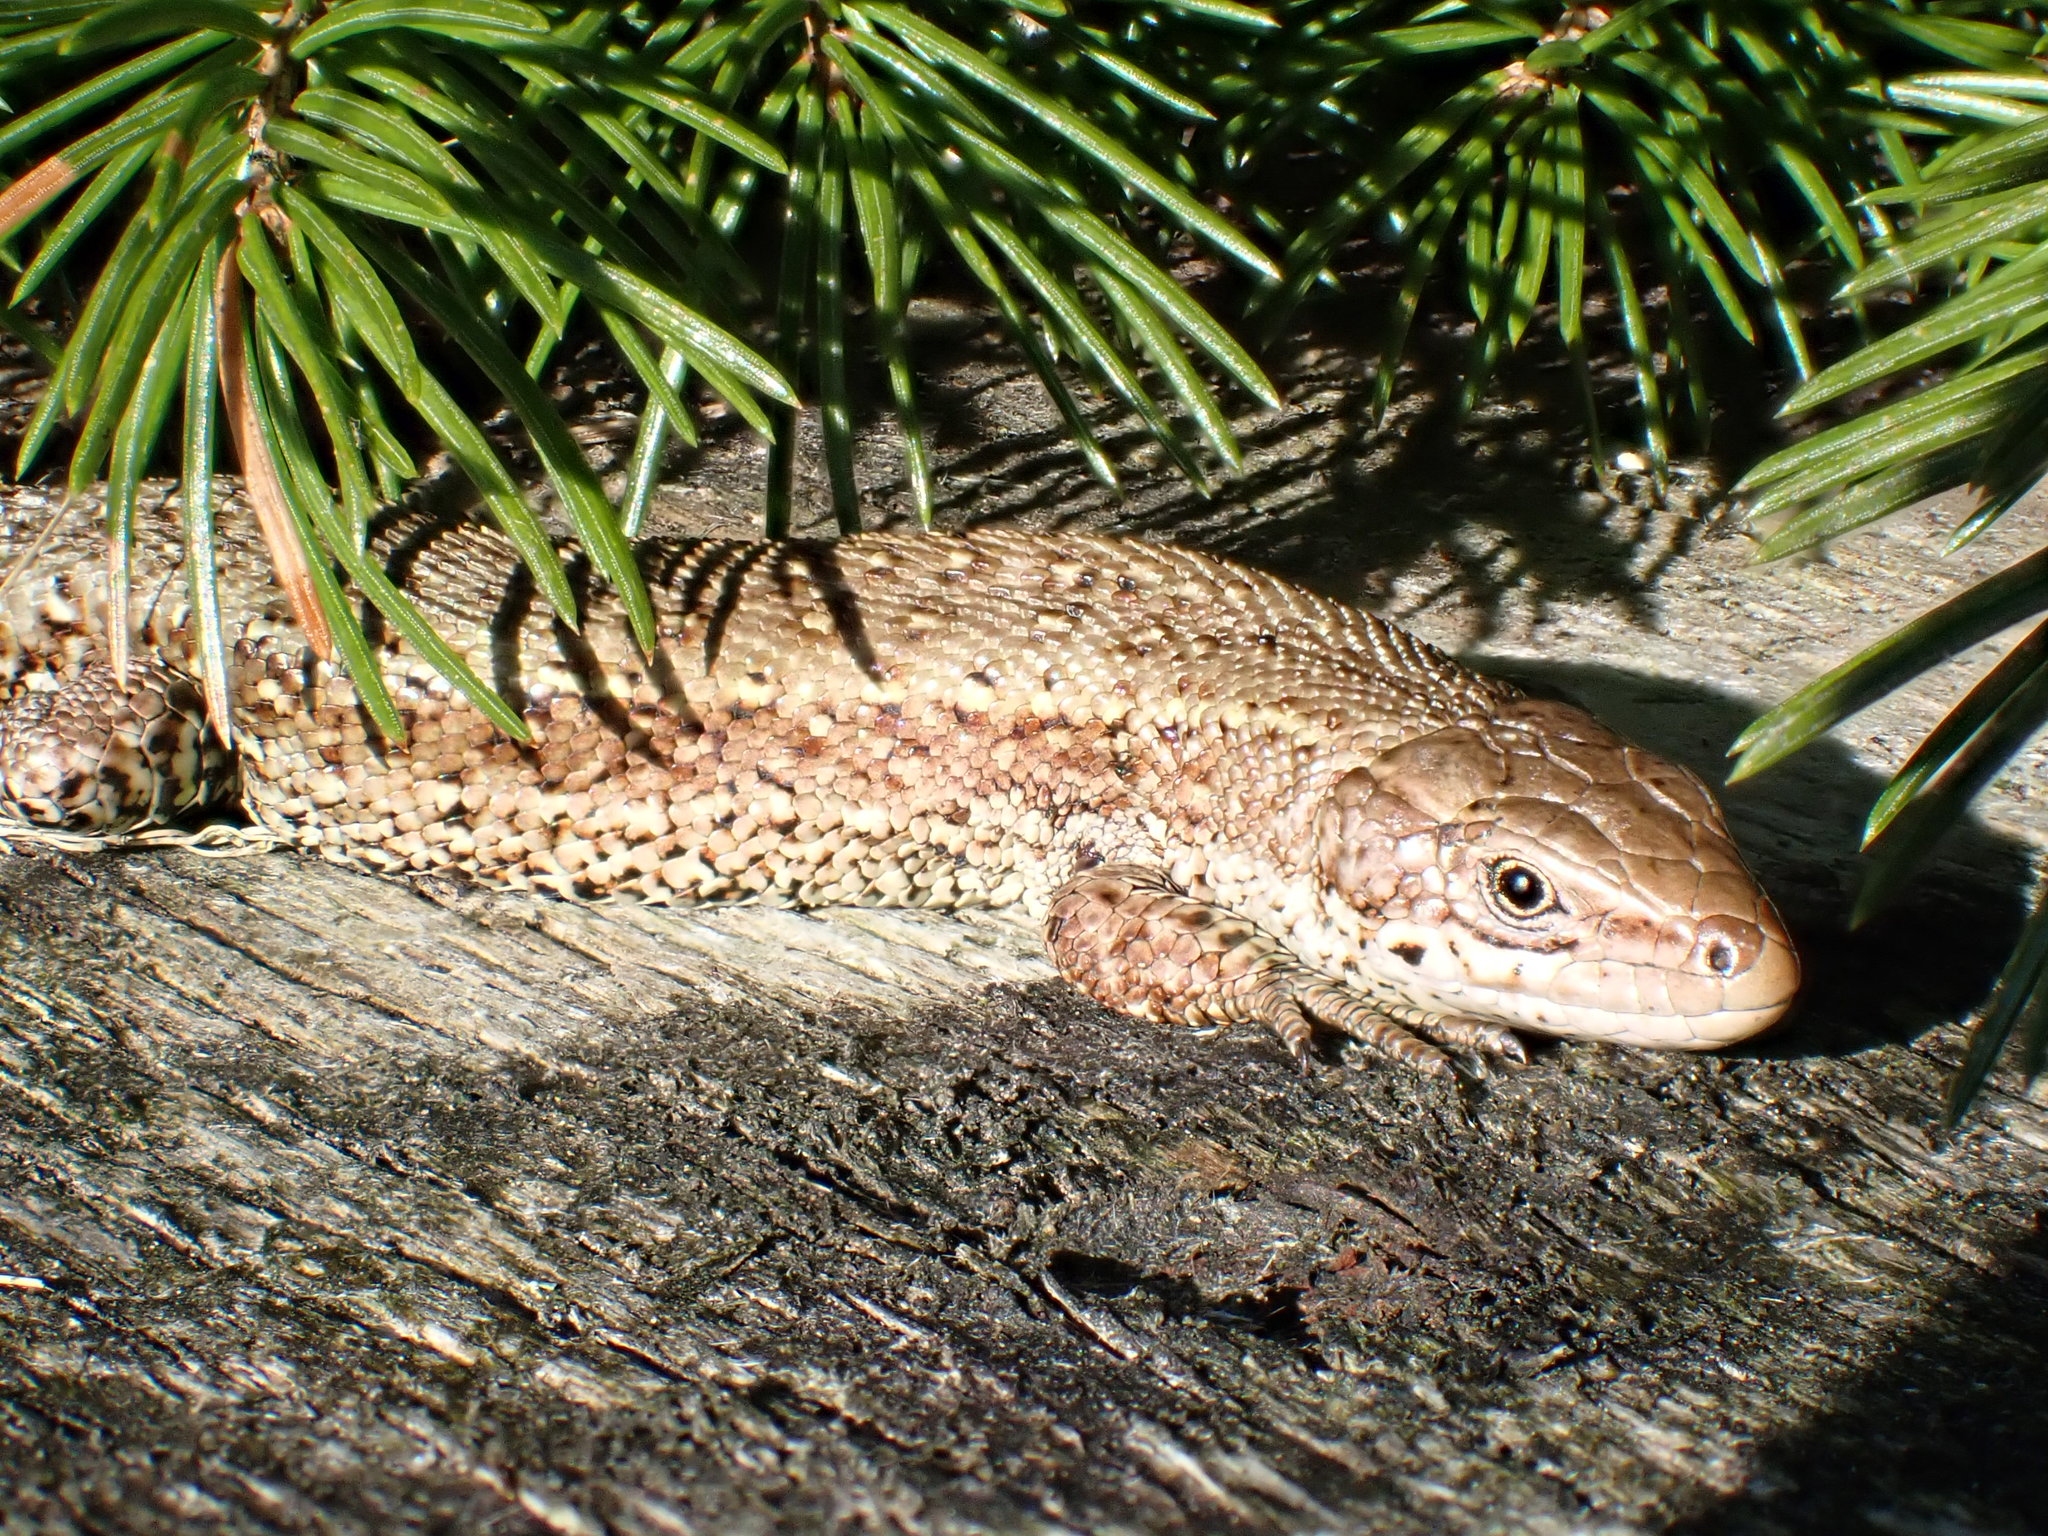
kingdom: Animalia
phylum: Chordata
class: Squamata
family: Lacertidae
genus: Zootoca
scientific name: Zootoca vivipara
